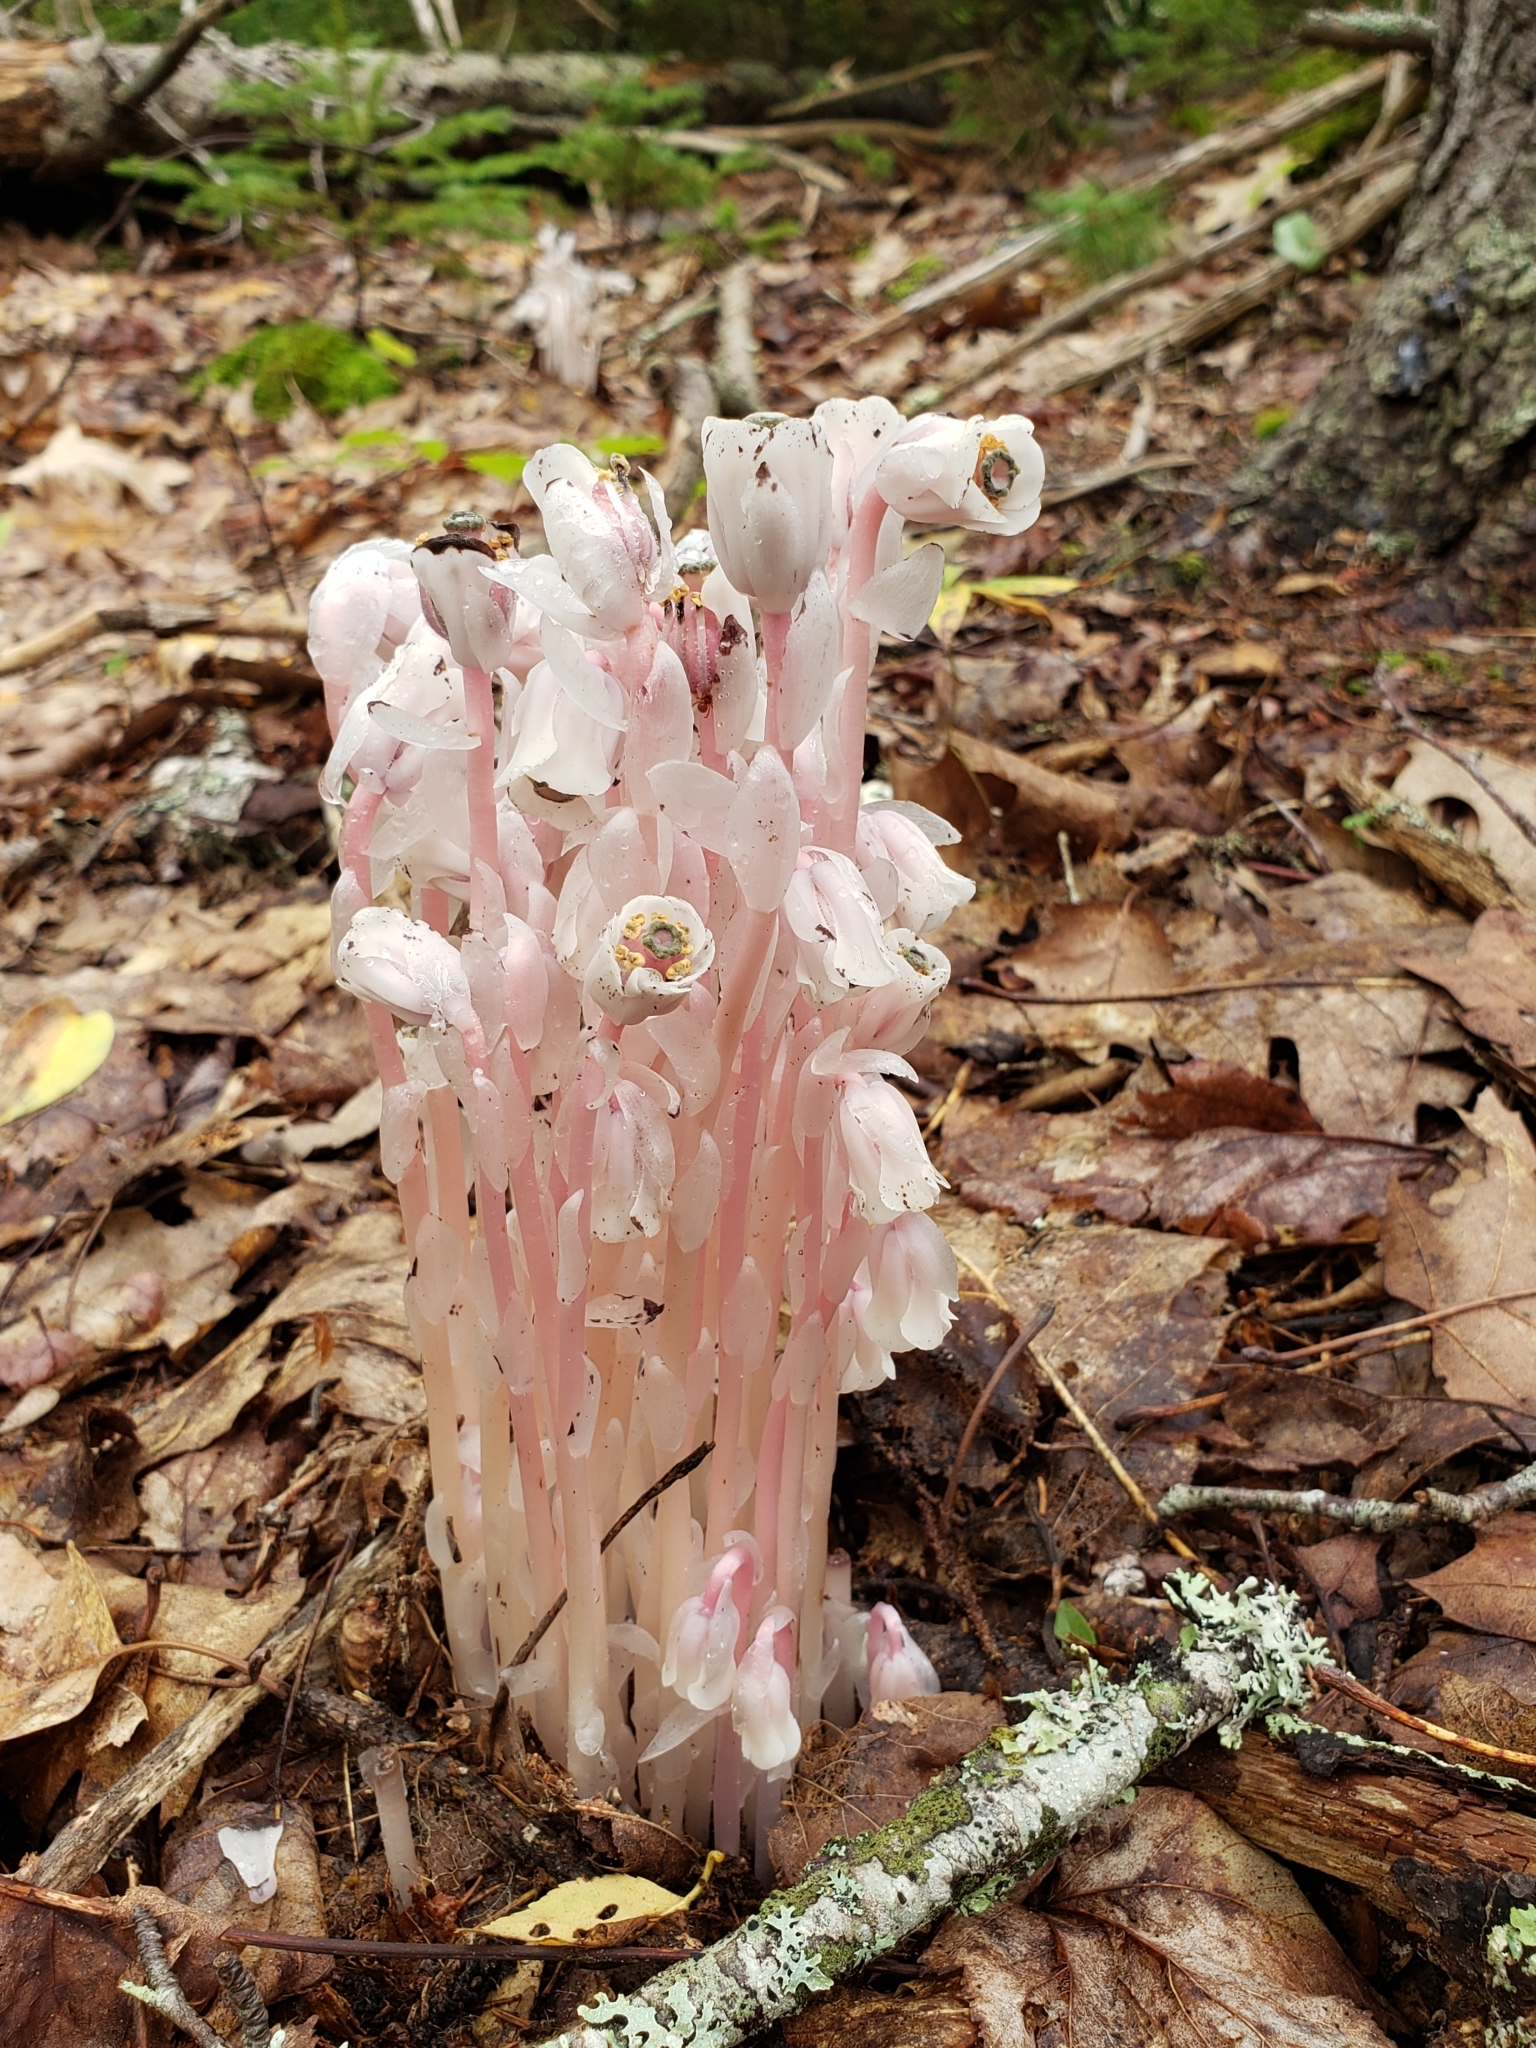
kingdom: Plantae
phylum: Tracheophyta
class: Magnoliopsida
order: Ericales
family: Ericaceae
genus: Monotropa
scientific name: Monotropa uniflora
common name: Convulsion root
